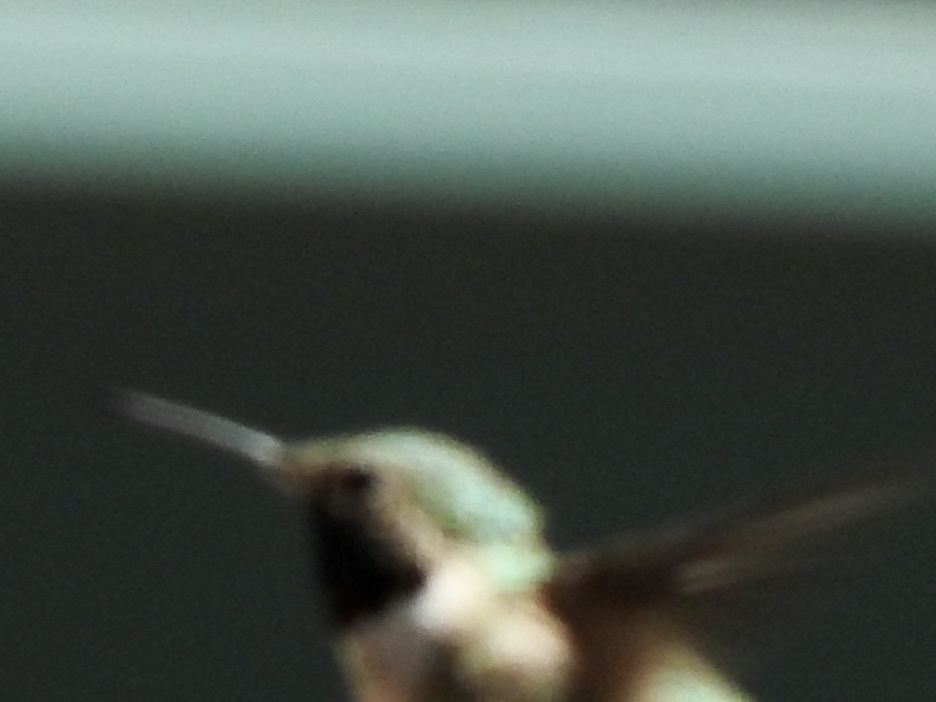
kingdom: Animalia
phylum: Chordata
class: Aves
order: Apodiformes
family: Trochilidae
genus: Selasphorus
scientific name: Selasphorus platycercus
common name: Broad-tailed hummingbird
